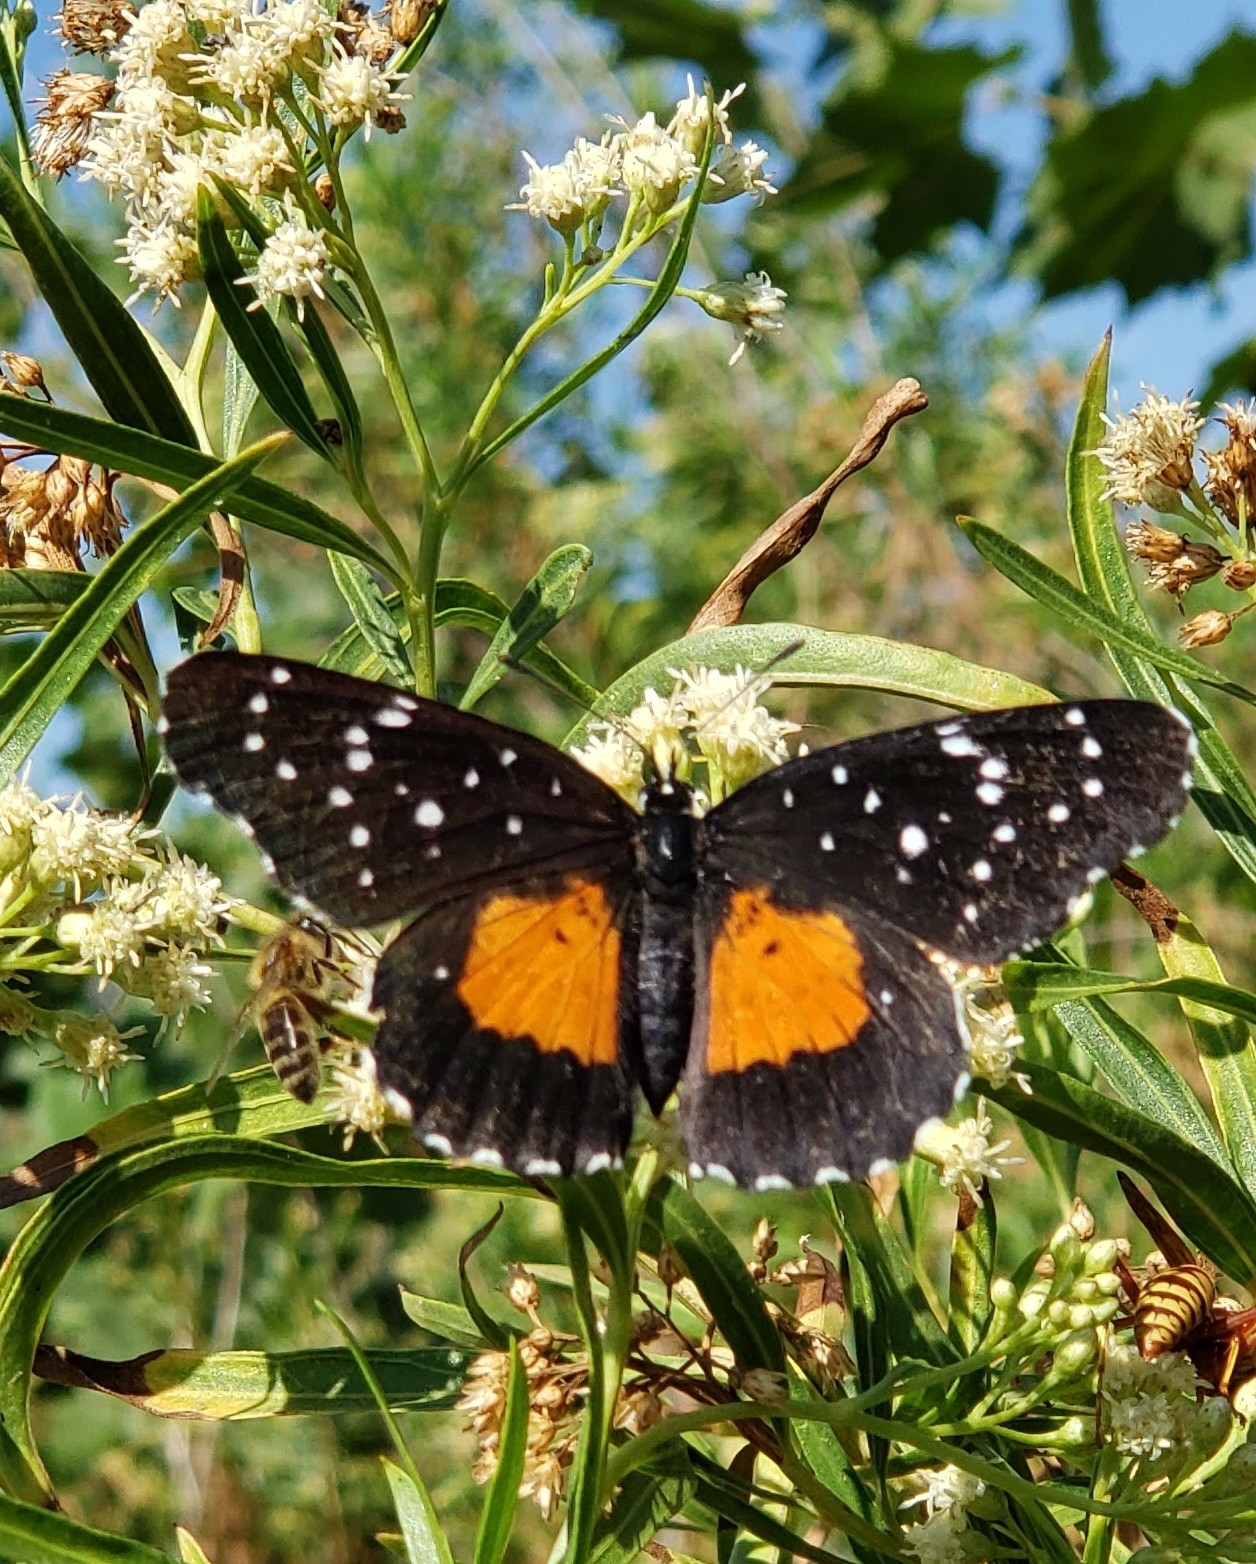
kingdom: Animalia
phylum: Arthropoda
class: Insecta
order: Lepidoptera
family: Nymphalidae
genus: Chlosyne
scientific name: Chlosyne janais
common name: Crimson patch
